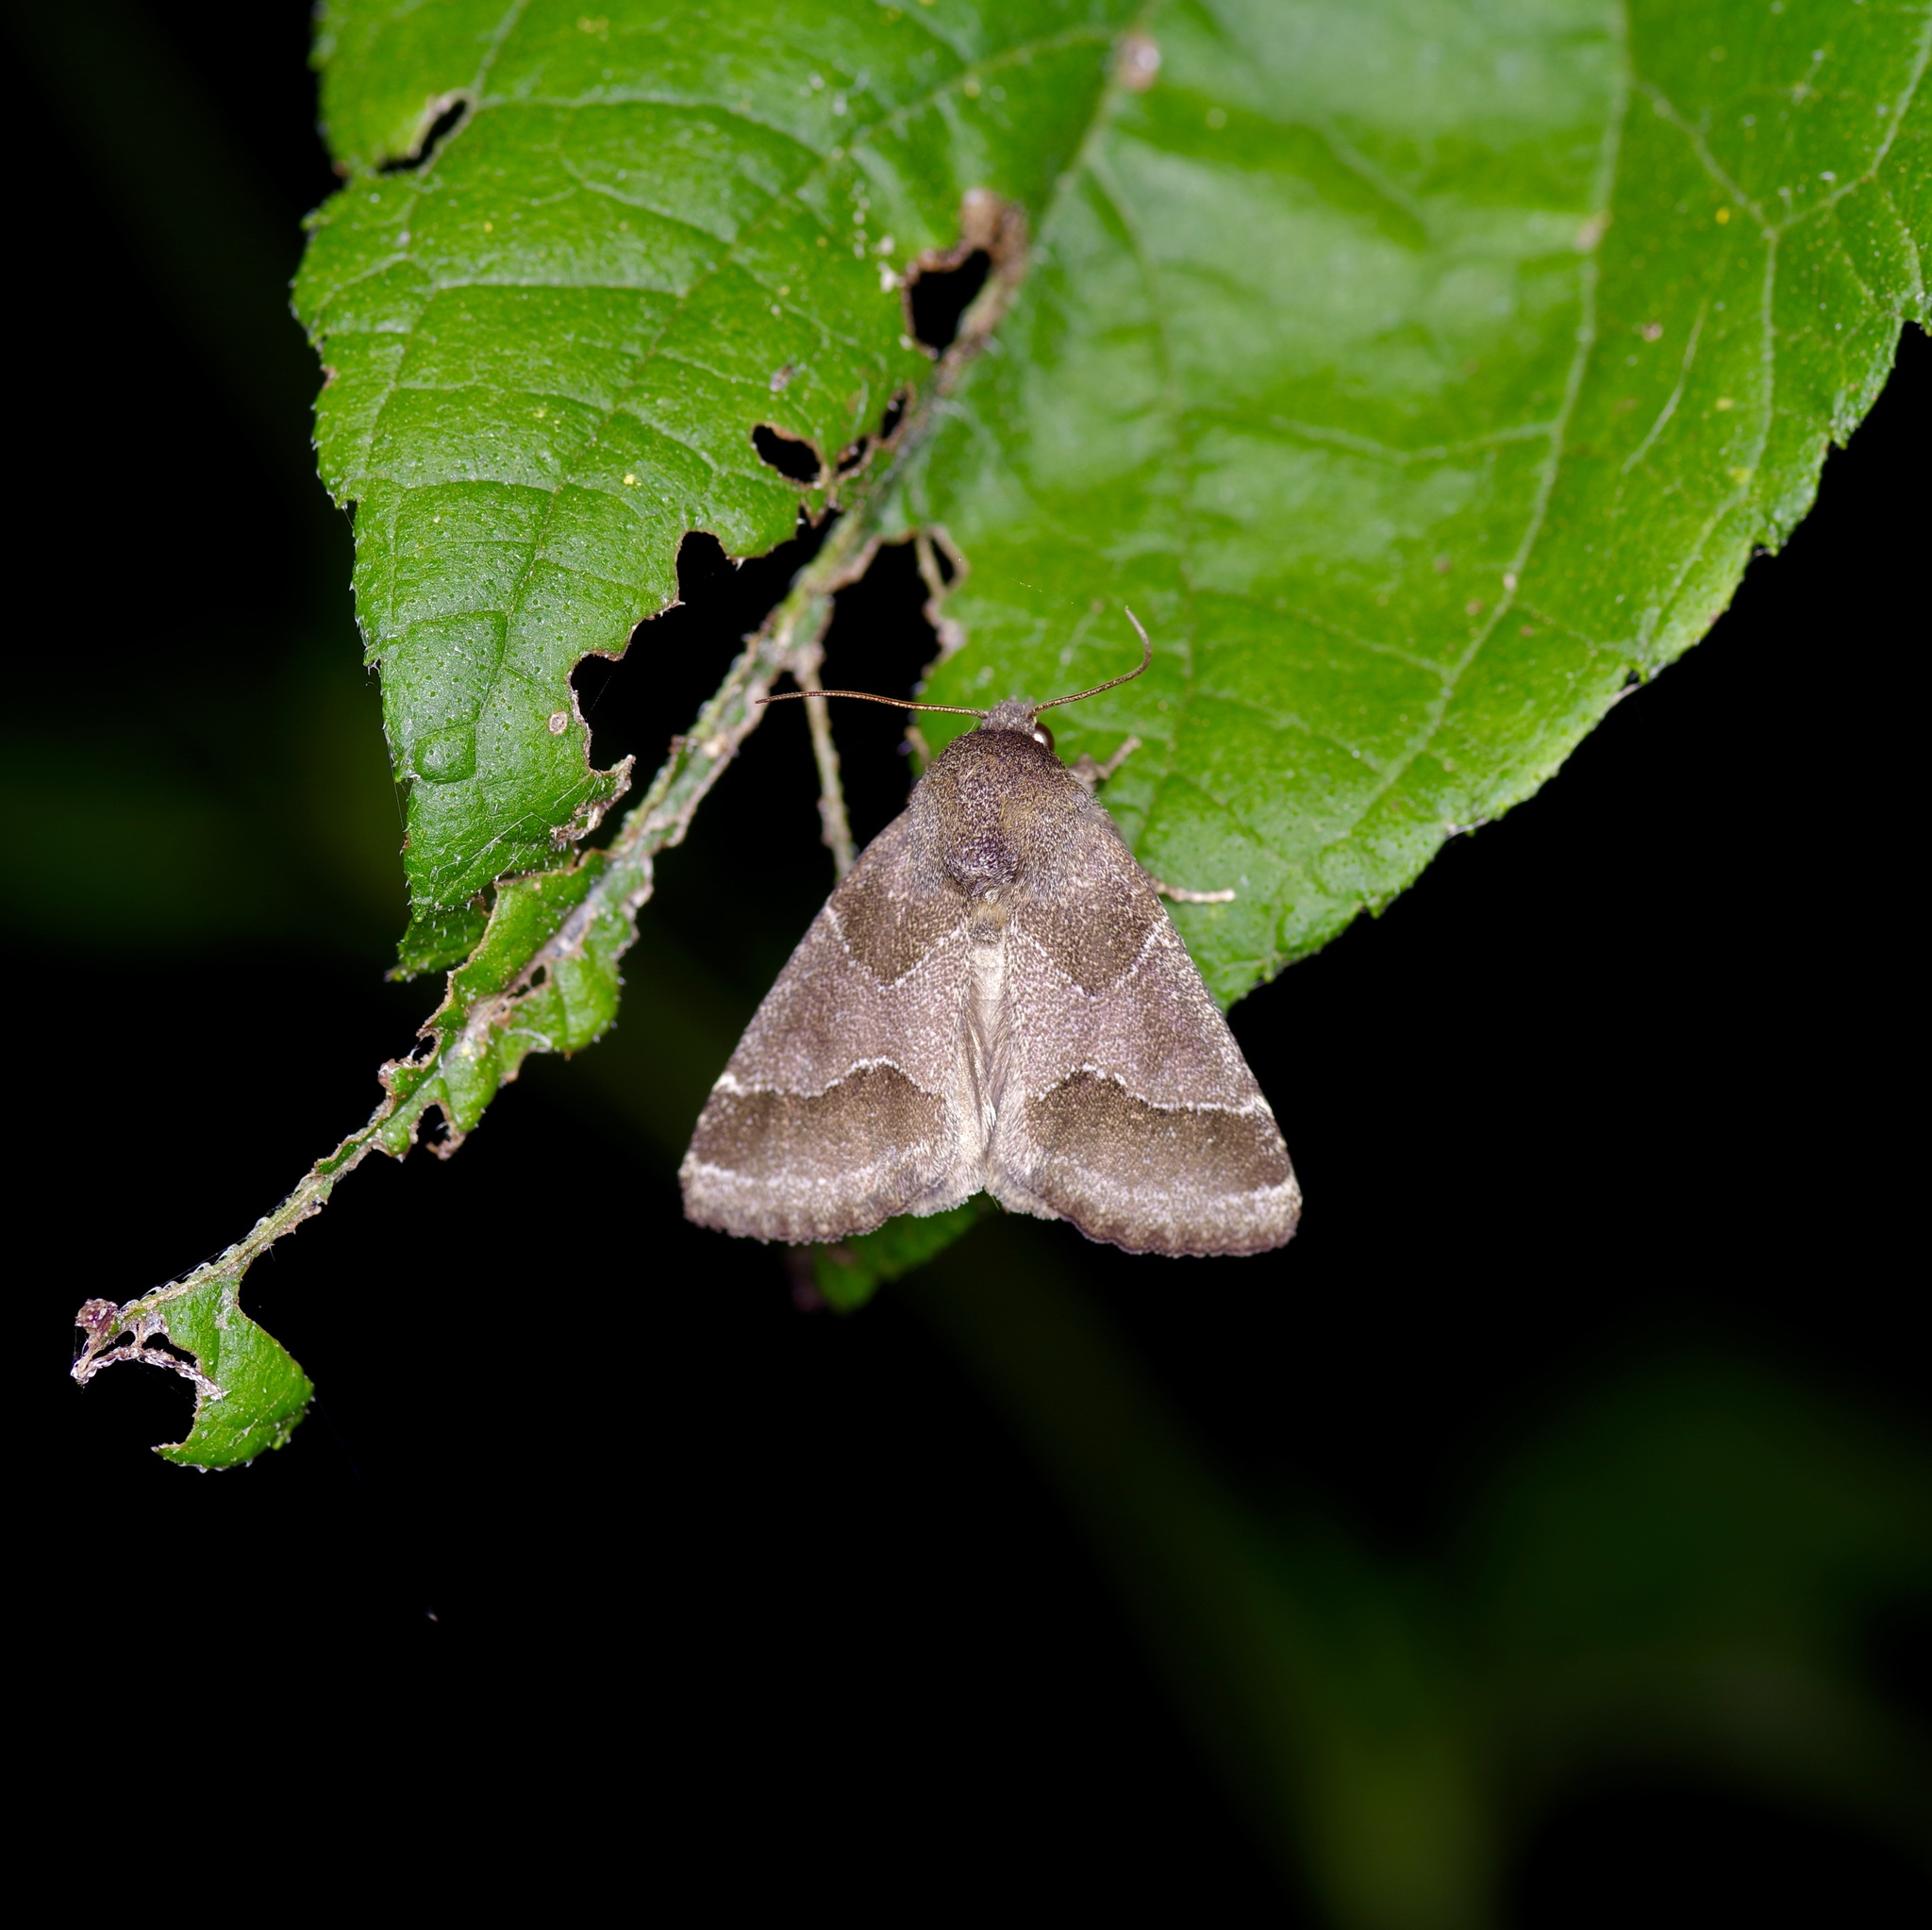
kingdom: Animalia
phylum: Arthropoda
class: Insecta
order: Lepidoptera
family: Noctuidae
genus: Schinia
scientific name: Schinia thoreaui
